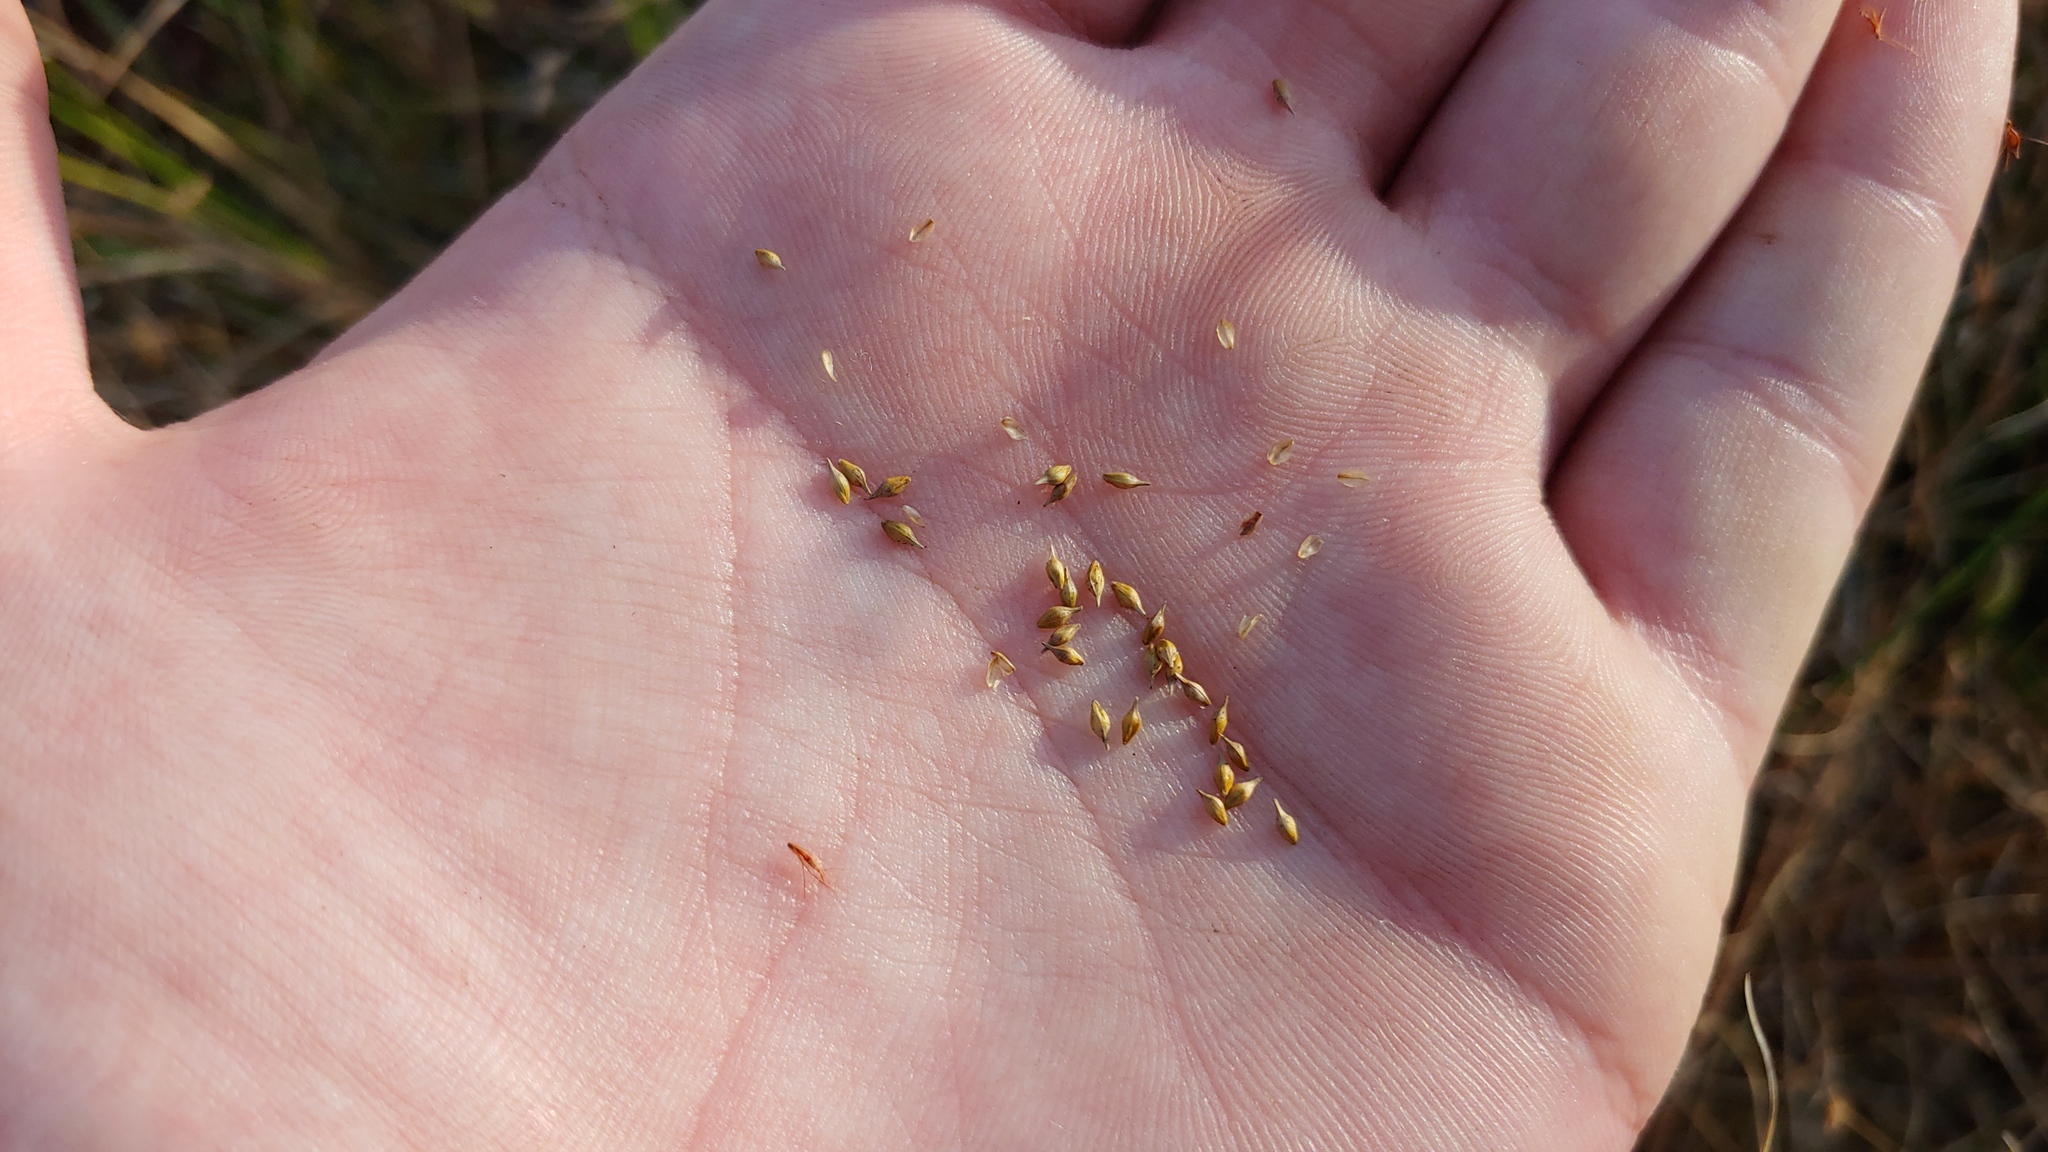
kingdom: Plantae
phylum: Tracheophyta
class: Liliopsida
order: Poales
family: Cyperaceae
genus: Carex
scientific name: Carex
